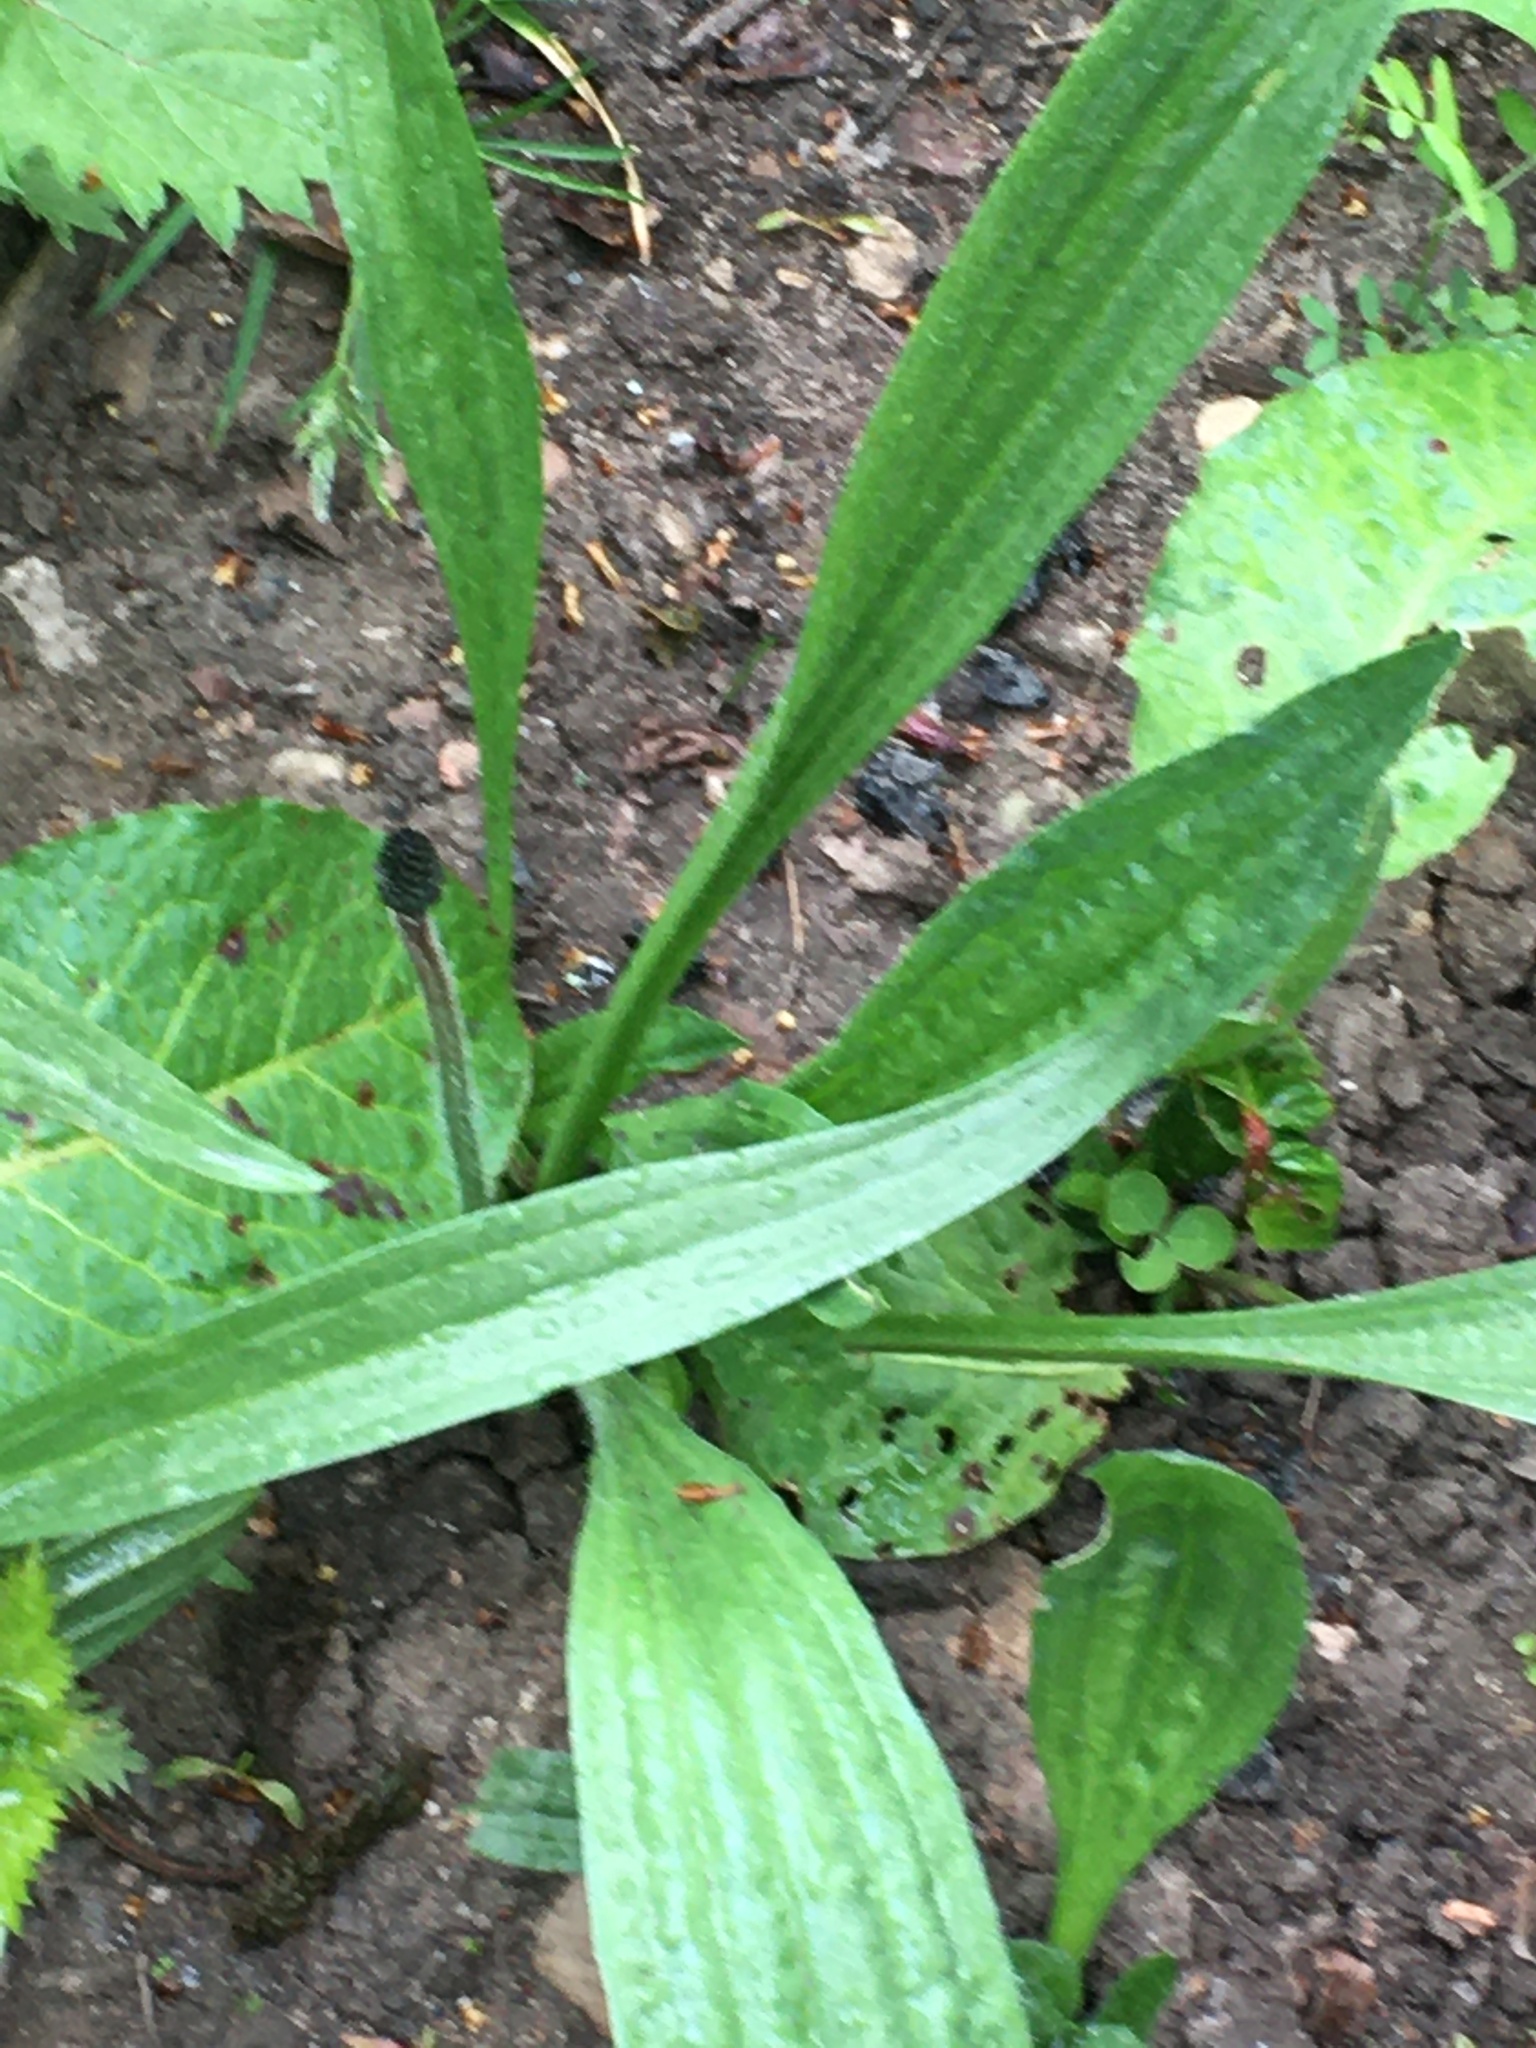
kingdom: Plantae
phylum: Tracheophyta
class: Magnoliopsida
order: Lamiales
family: Plantaginaceae
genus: Plantago
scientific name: Plantago lanceolata
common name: Ribwort plantain
